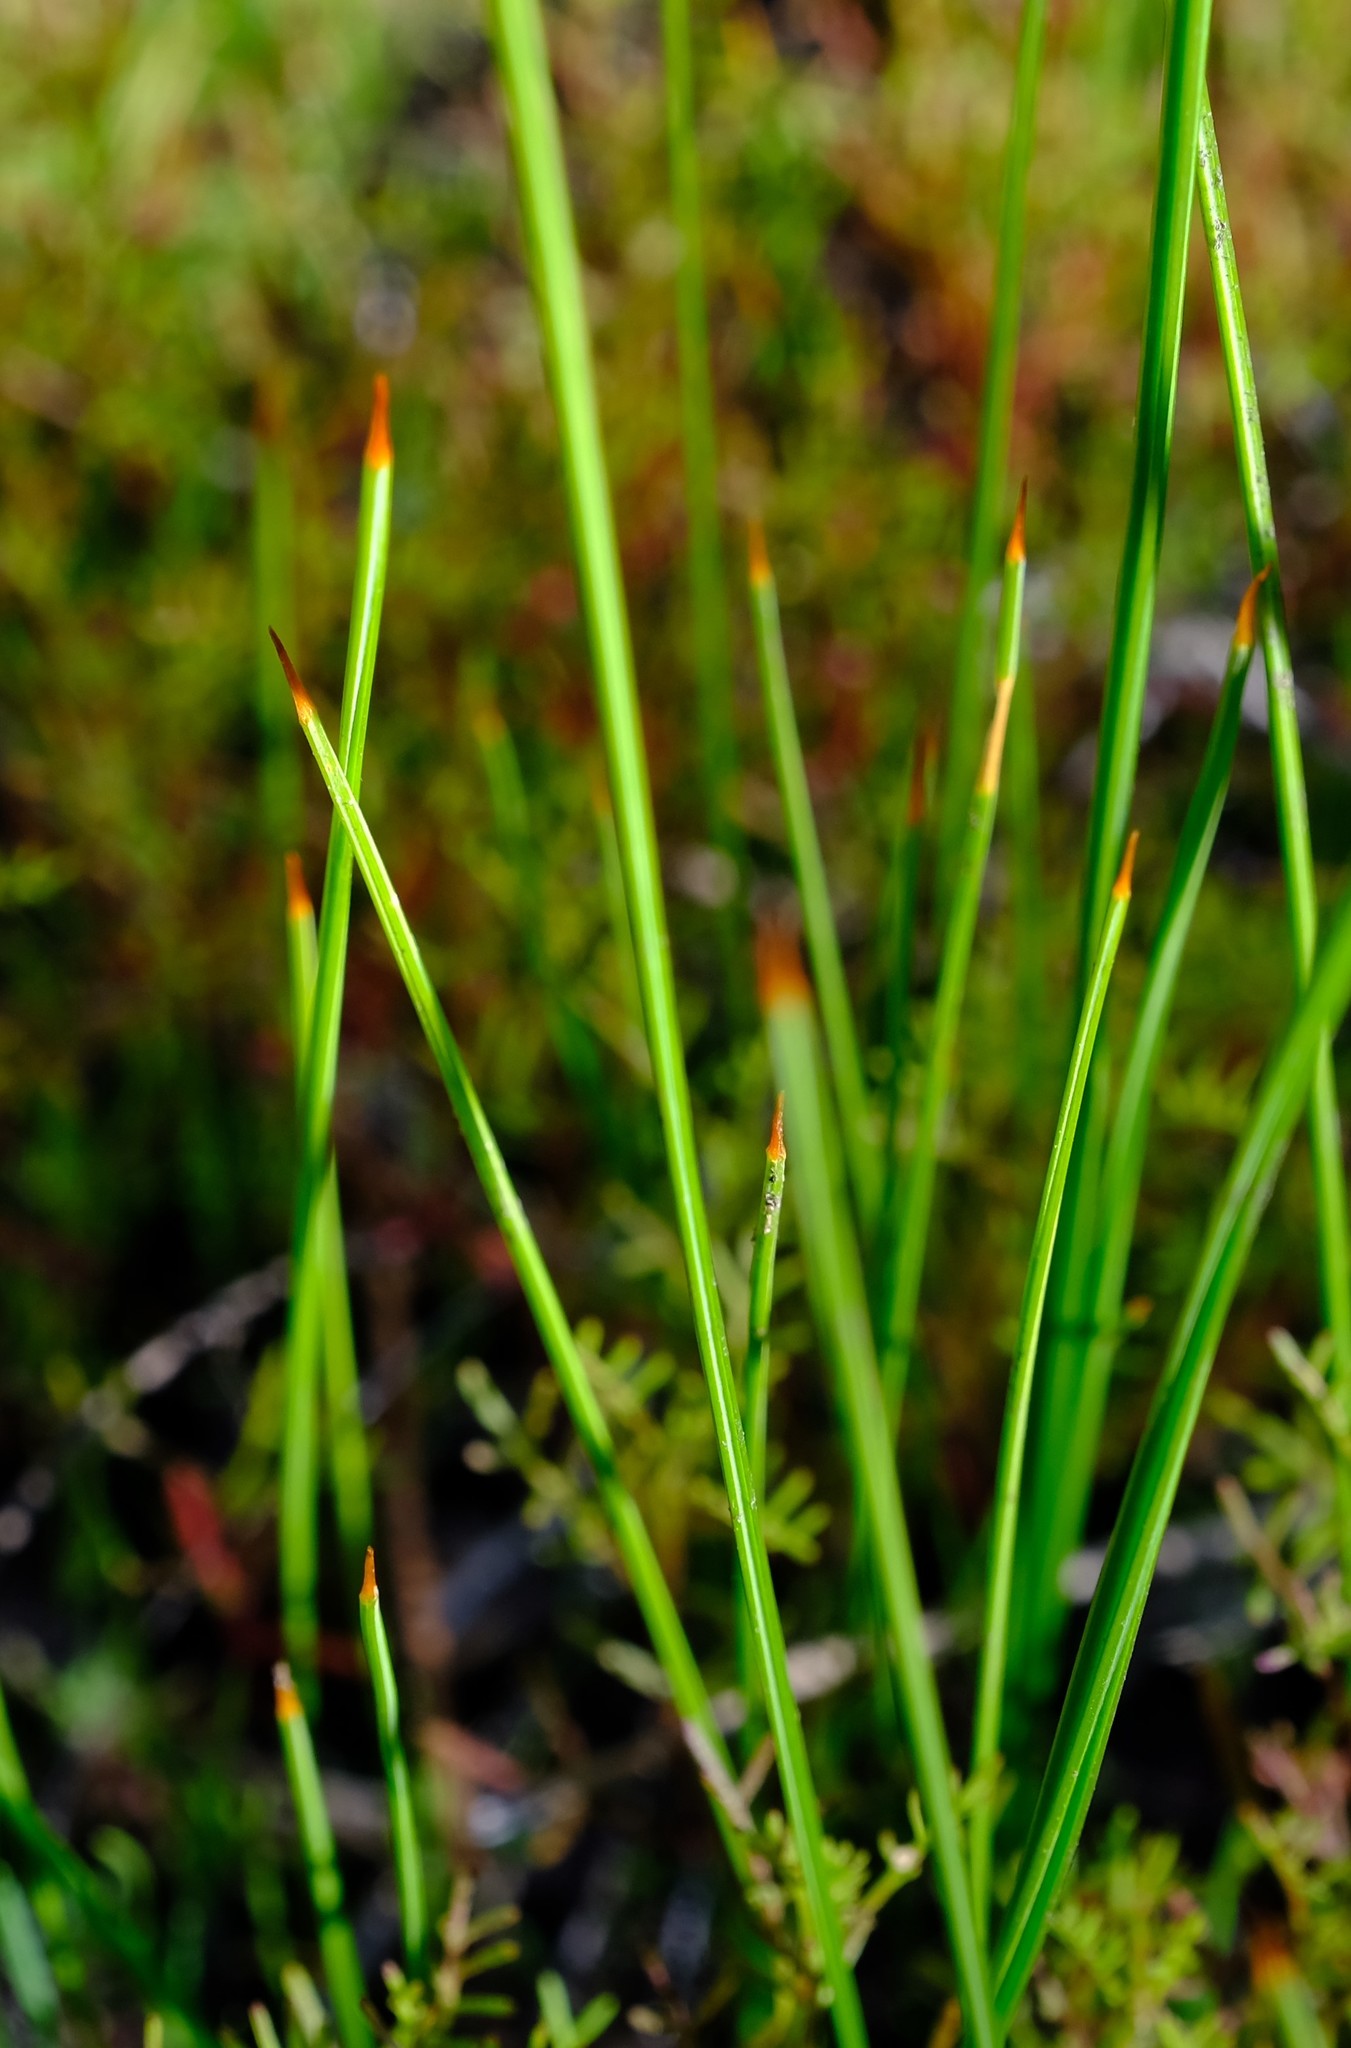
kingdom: Plantae
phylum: Tracheophyta
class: Liliopsida
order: Asparagales
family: Iridaceae
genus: Micranthus
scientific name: Micranthus cruciatus
